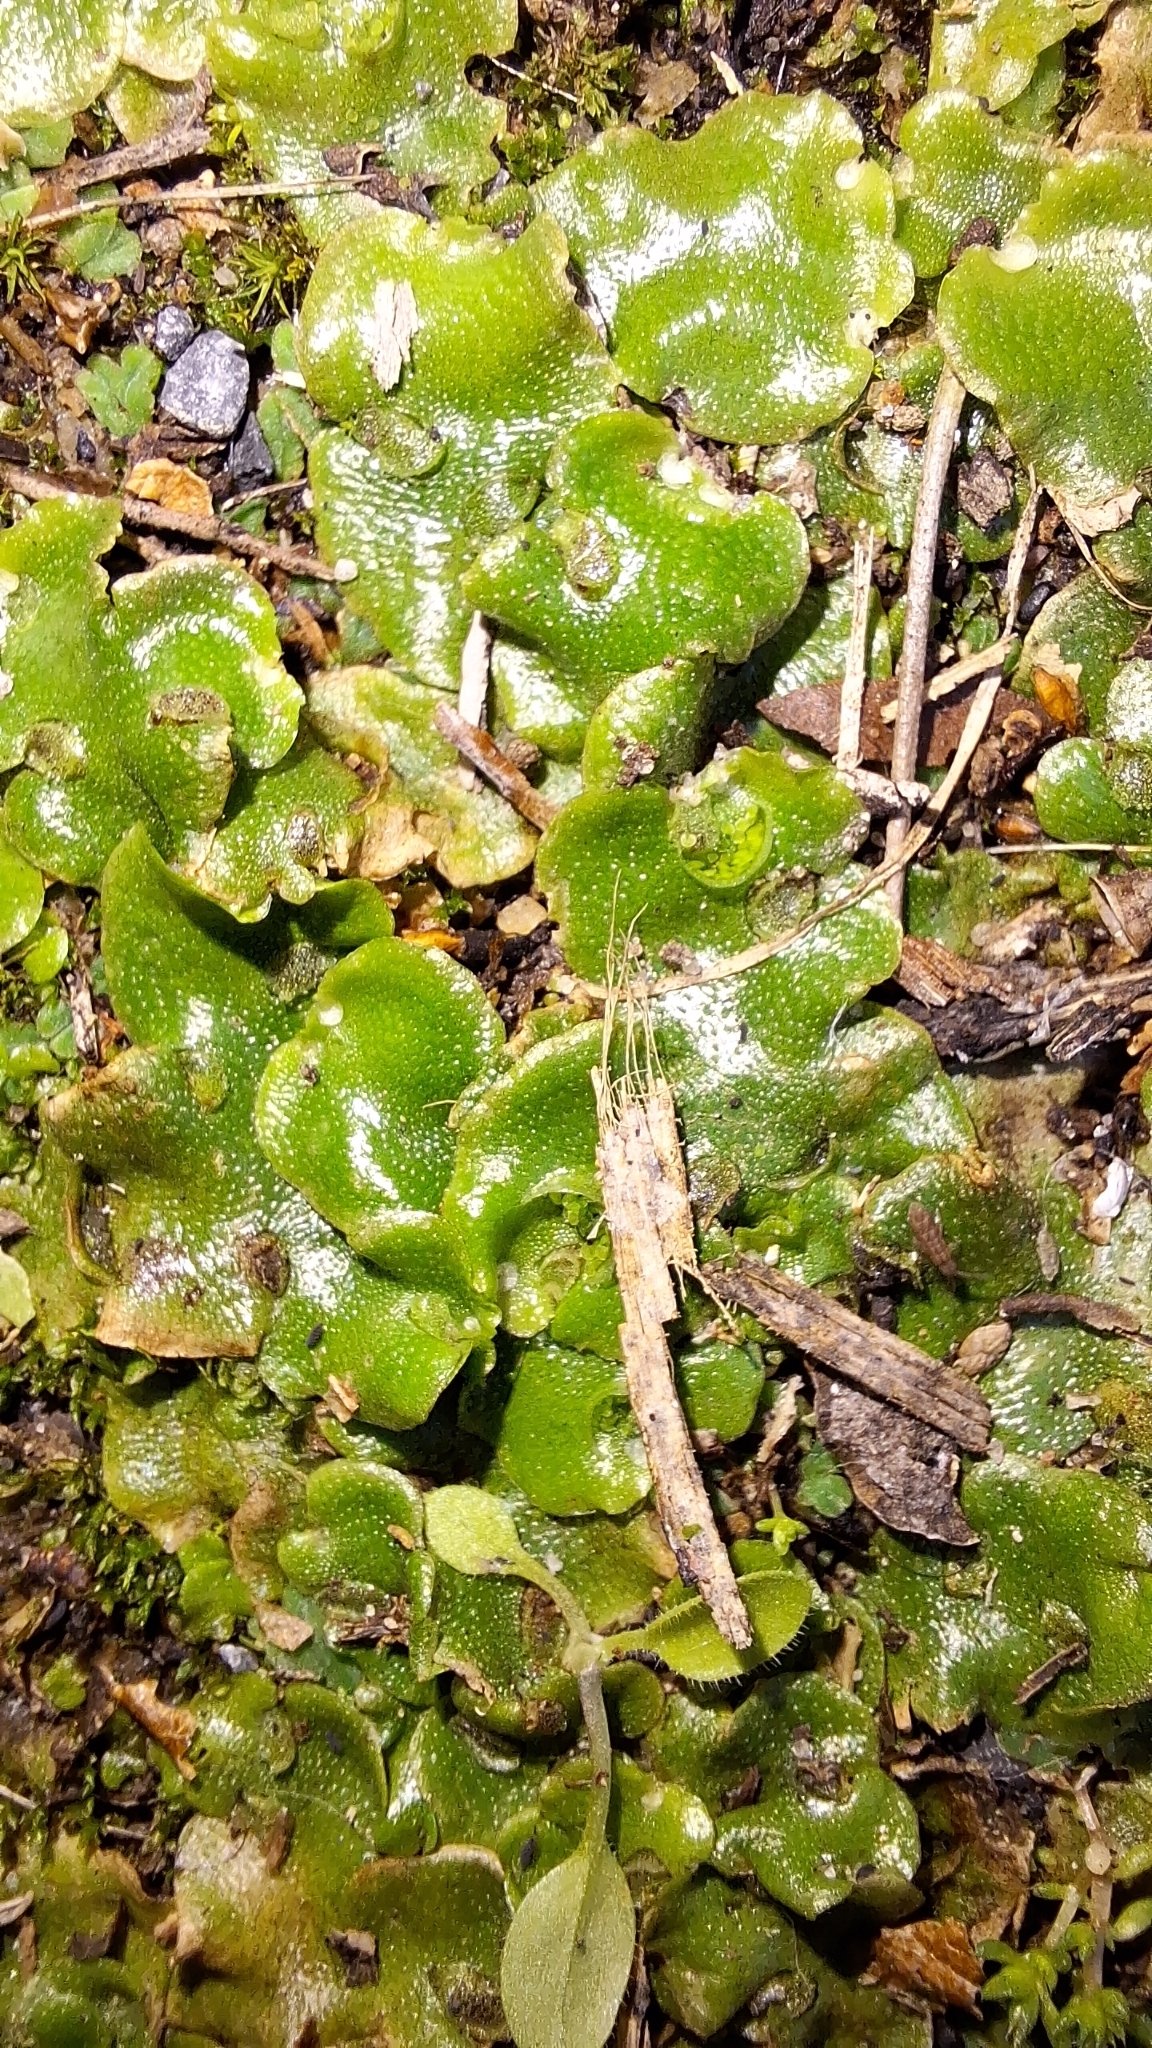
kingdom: Plantae
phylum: Marchantiophyta
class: Marchantiopsida
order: Lunulariales
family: Lunulariaceae
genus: Lunularia
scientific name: Lunularia cruciata
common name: Crescent-cup liverwort
